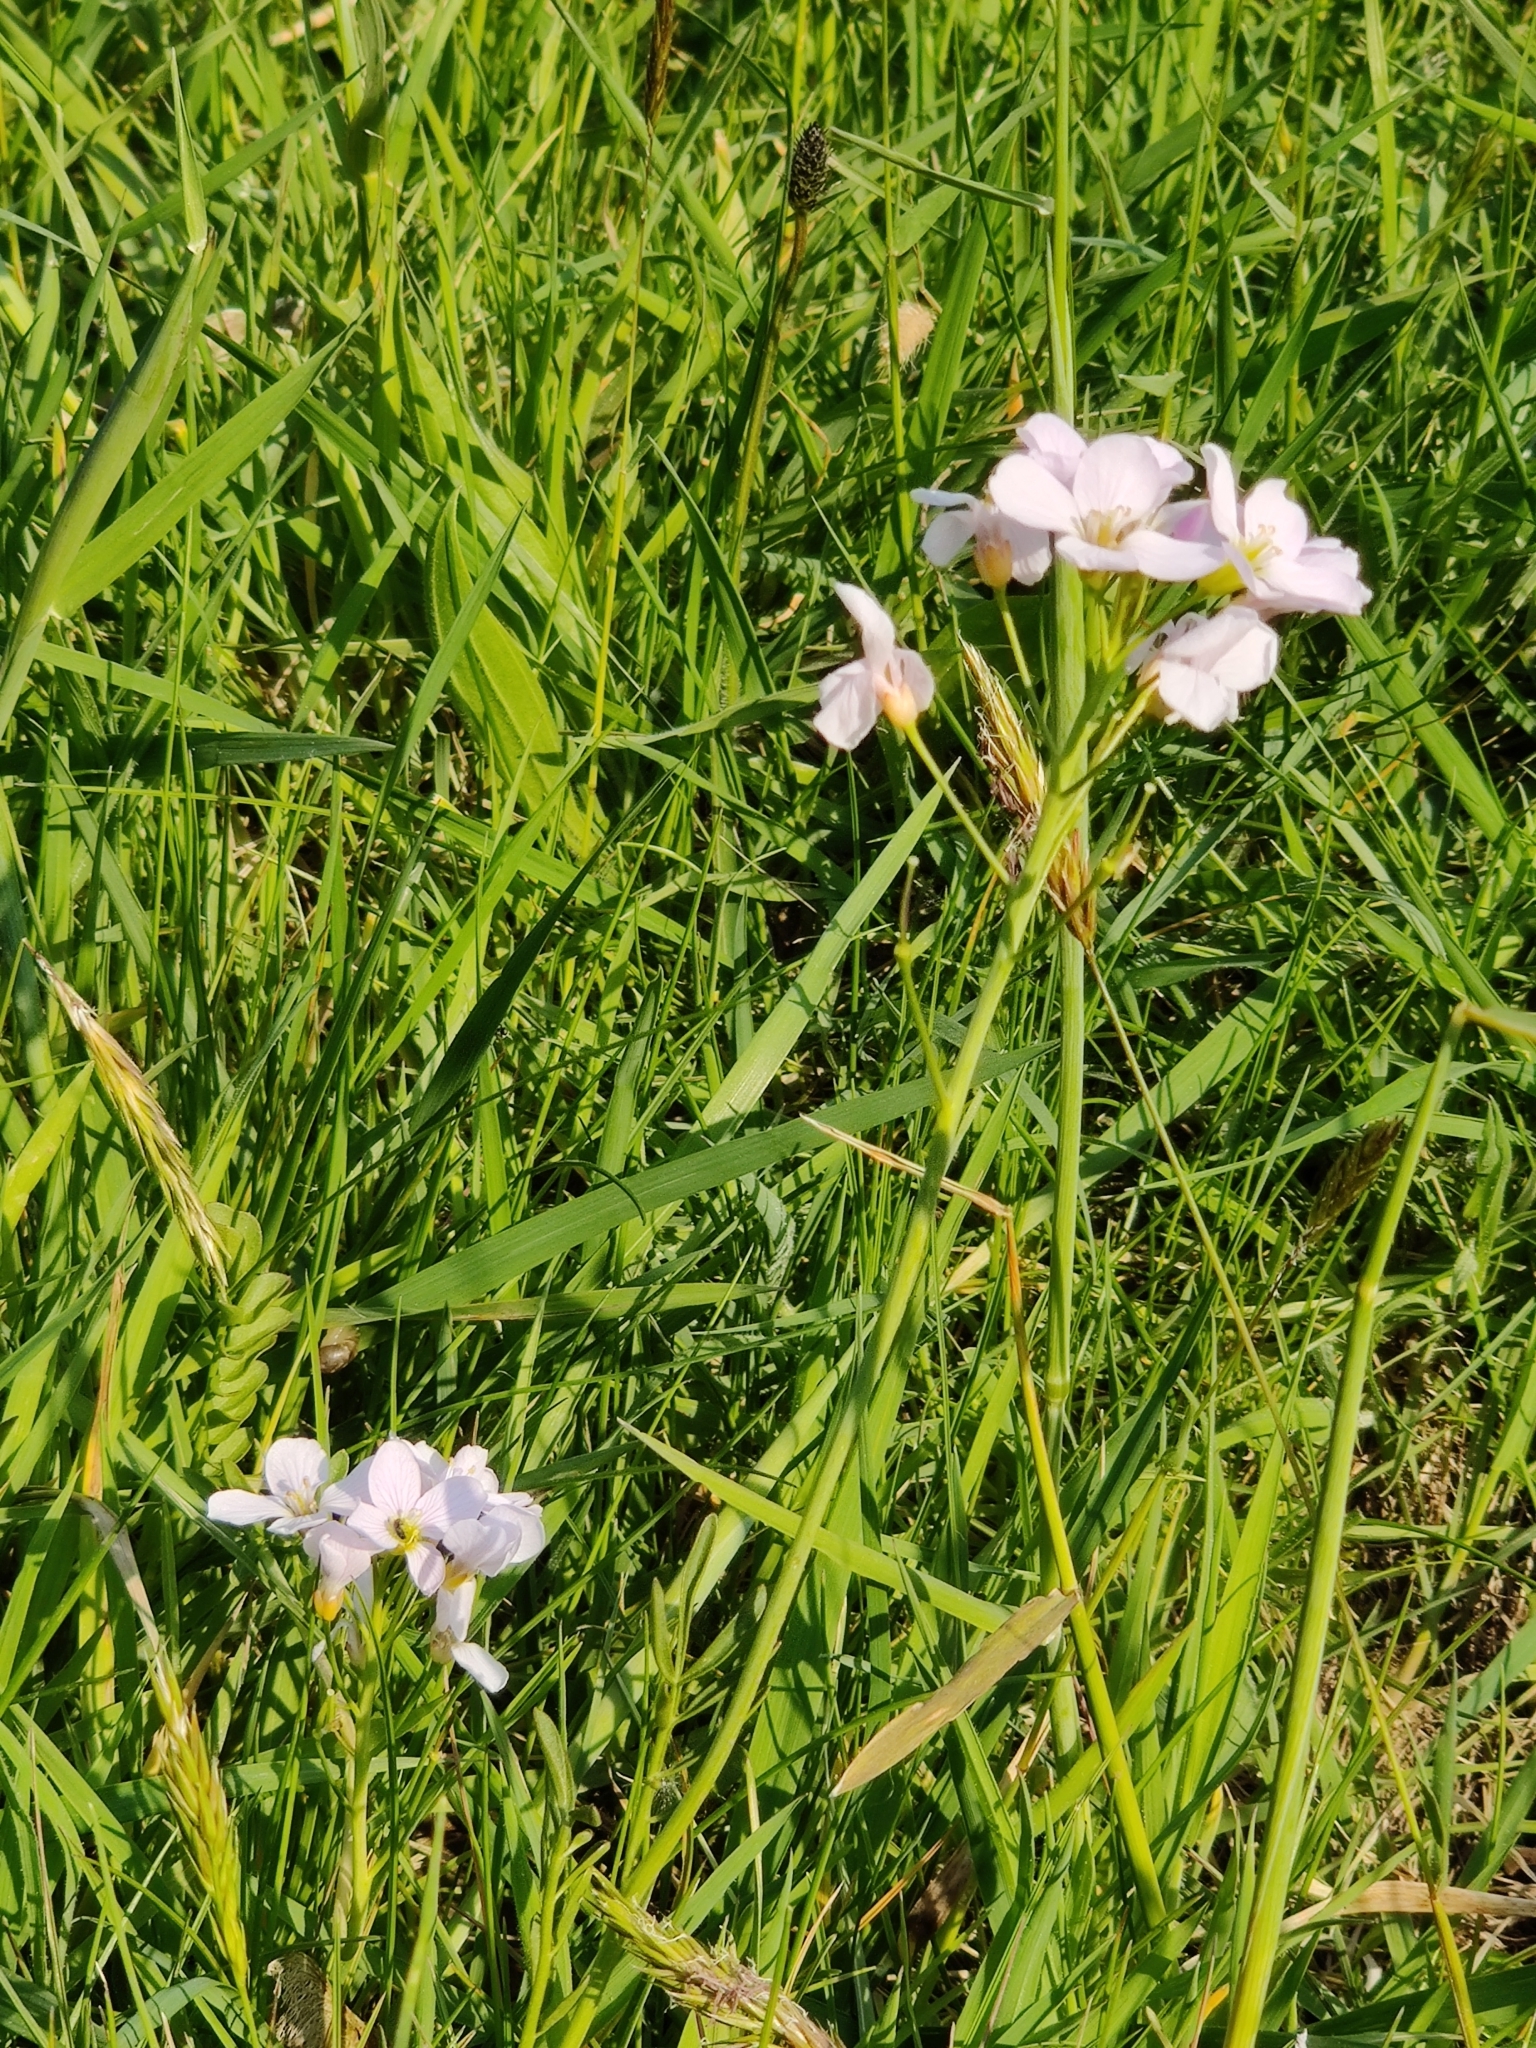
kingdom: Plantae
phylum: Tracheophyta
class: Magnoliopsida
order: Brassicales
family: Brassicaceae
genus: Cardamine
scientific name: Cardamine pratensis
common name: Cuckoo flower
